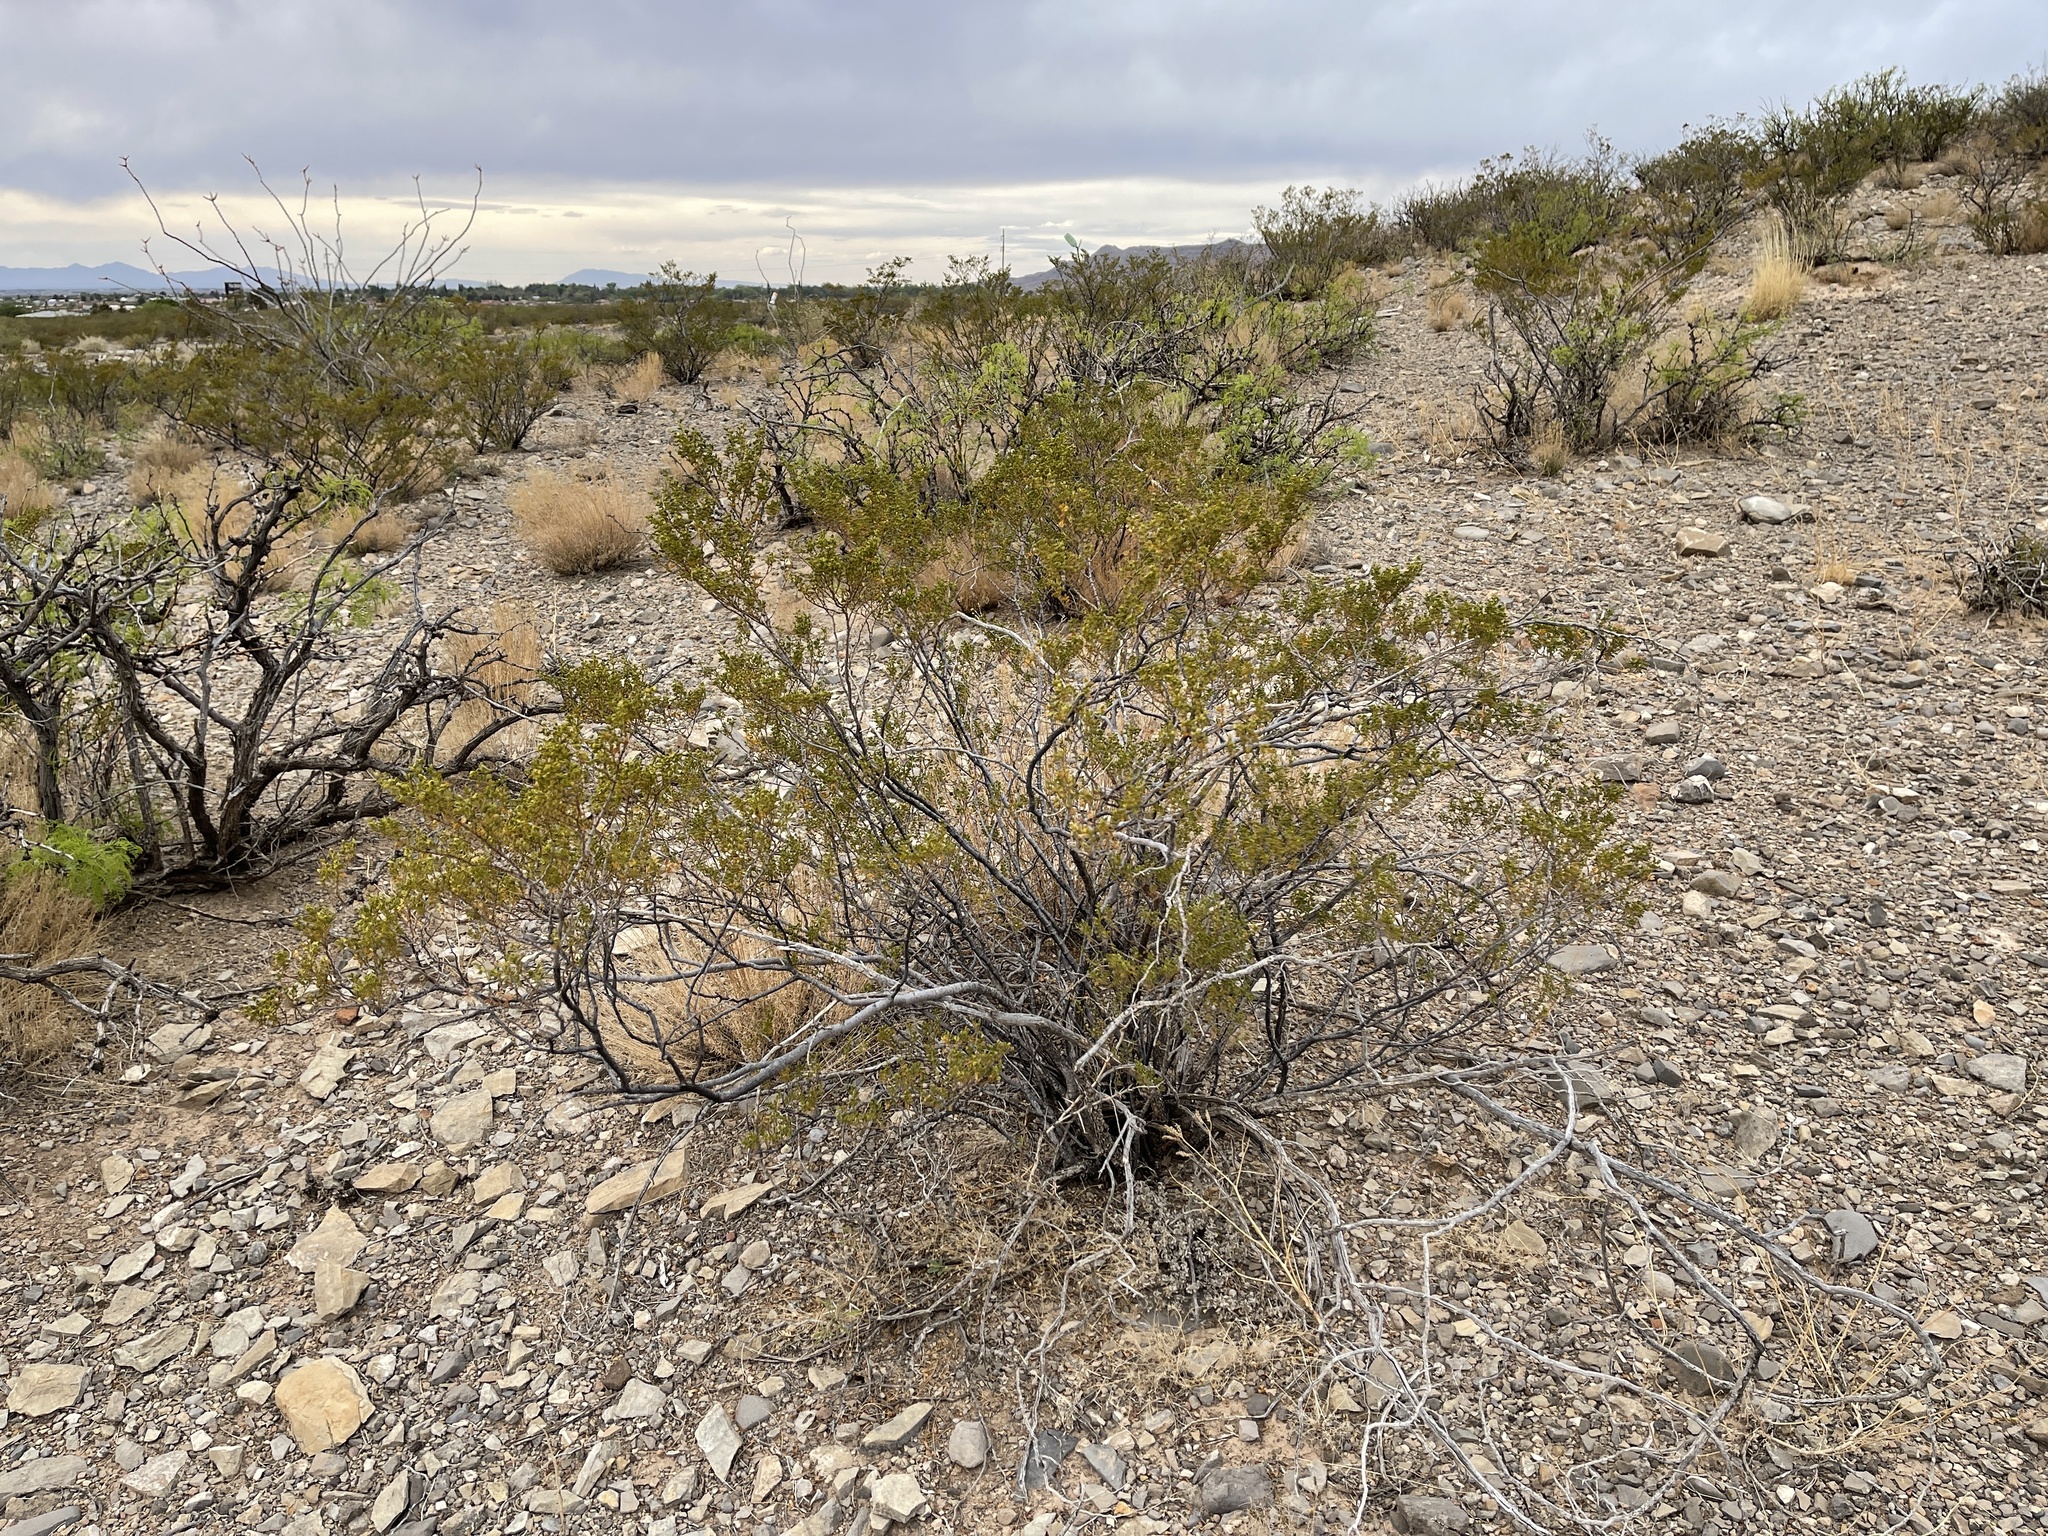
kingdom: Plantae
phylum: Tracheophyta
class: Magnoliopsida
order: Zygophyllales
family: Zygophyllaceae
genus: Larrea
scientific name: Larrea tridentata
